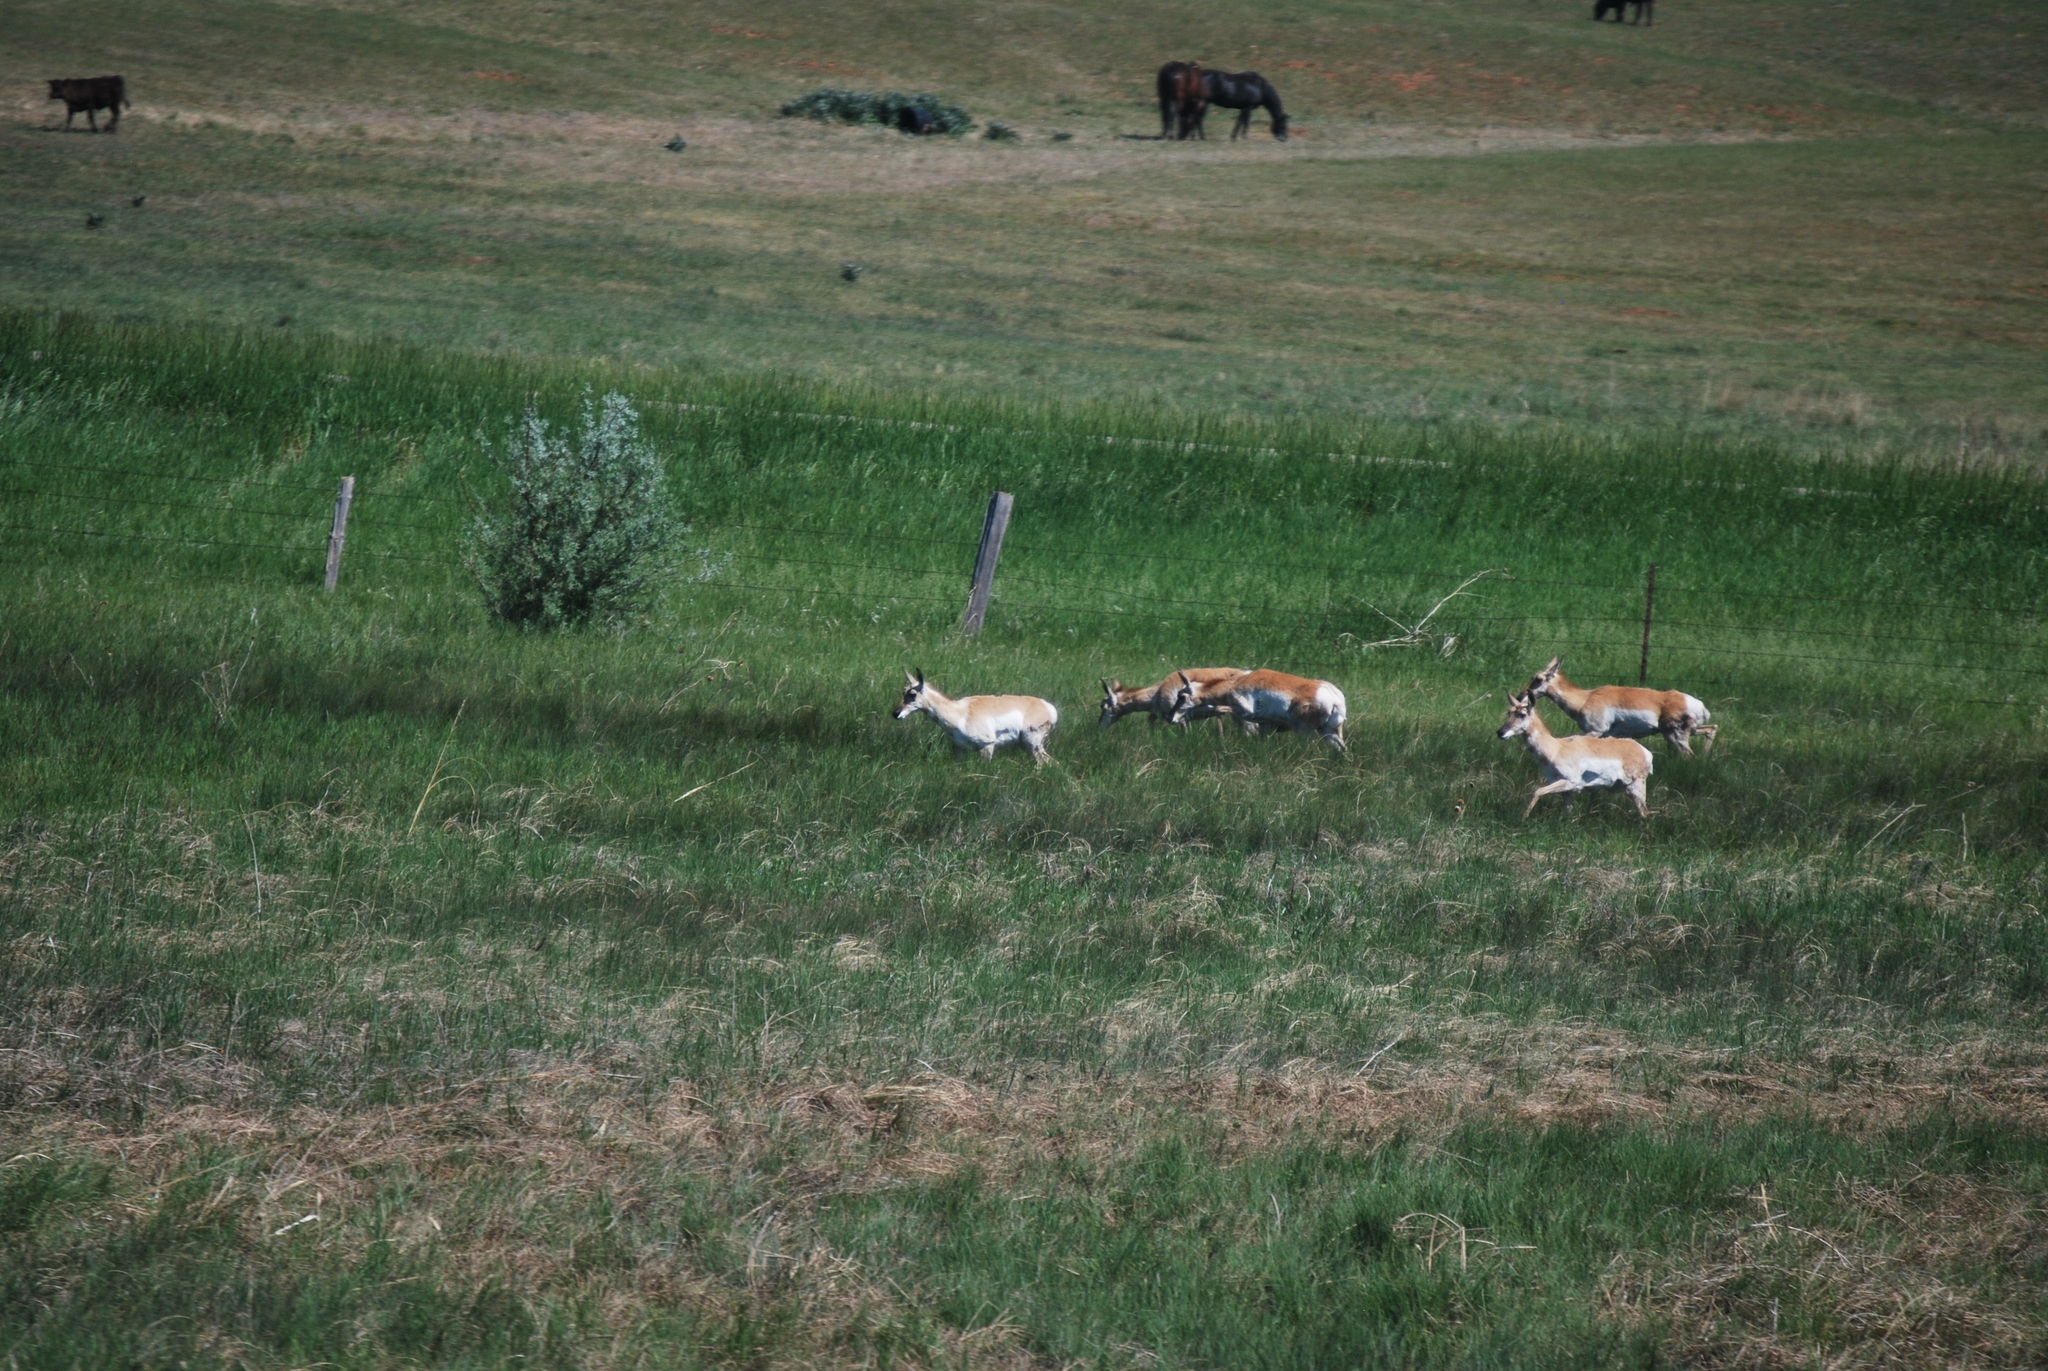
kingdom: Animalia
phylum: Chordata
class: Mammalia
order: Artiodactyla
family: Antilocapridae
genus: Antilocapra
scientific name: Antilocapra americana
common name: Pronghorn
